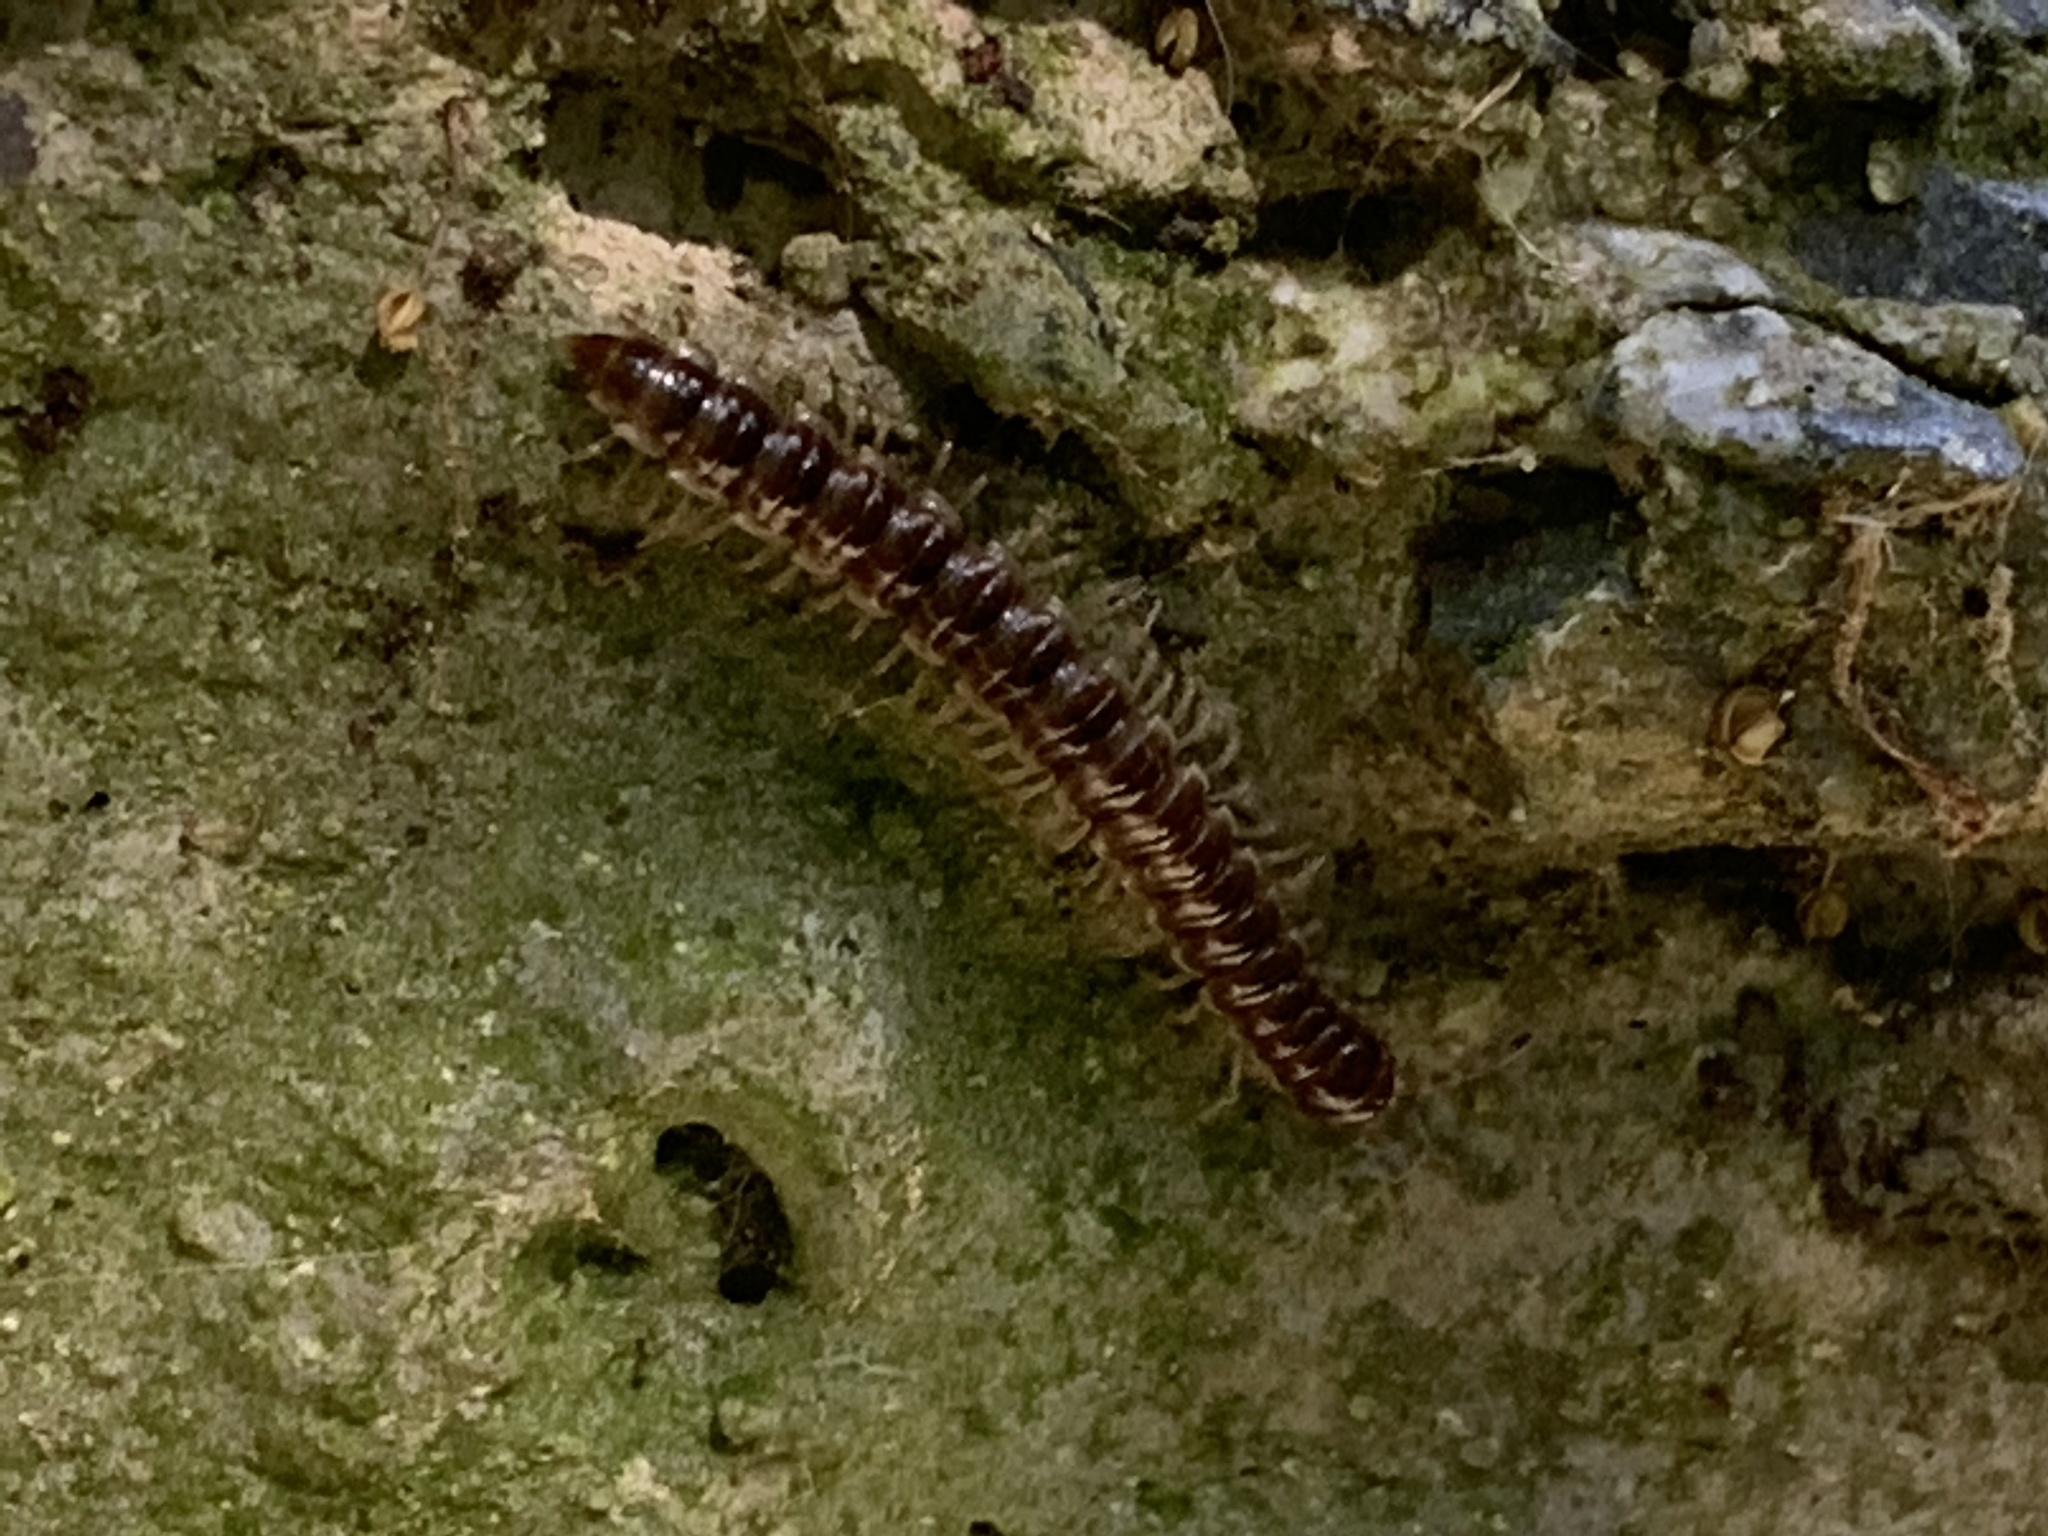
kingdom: Animalia
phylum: Arthropoda
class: Diplopoda
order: Polydesmida
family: Paradoxosomatidae
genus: Oxidus
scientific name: Oxidus gracilis
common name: Greenhouse millipede
